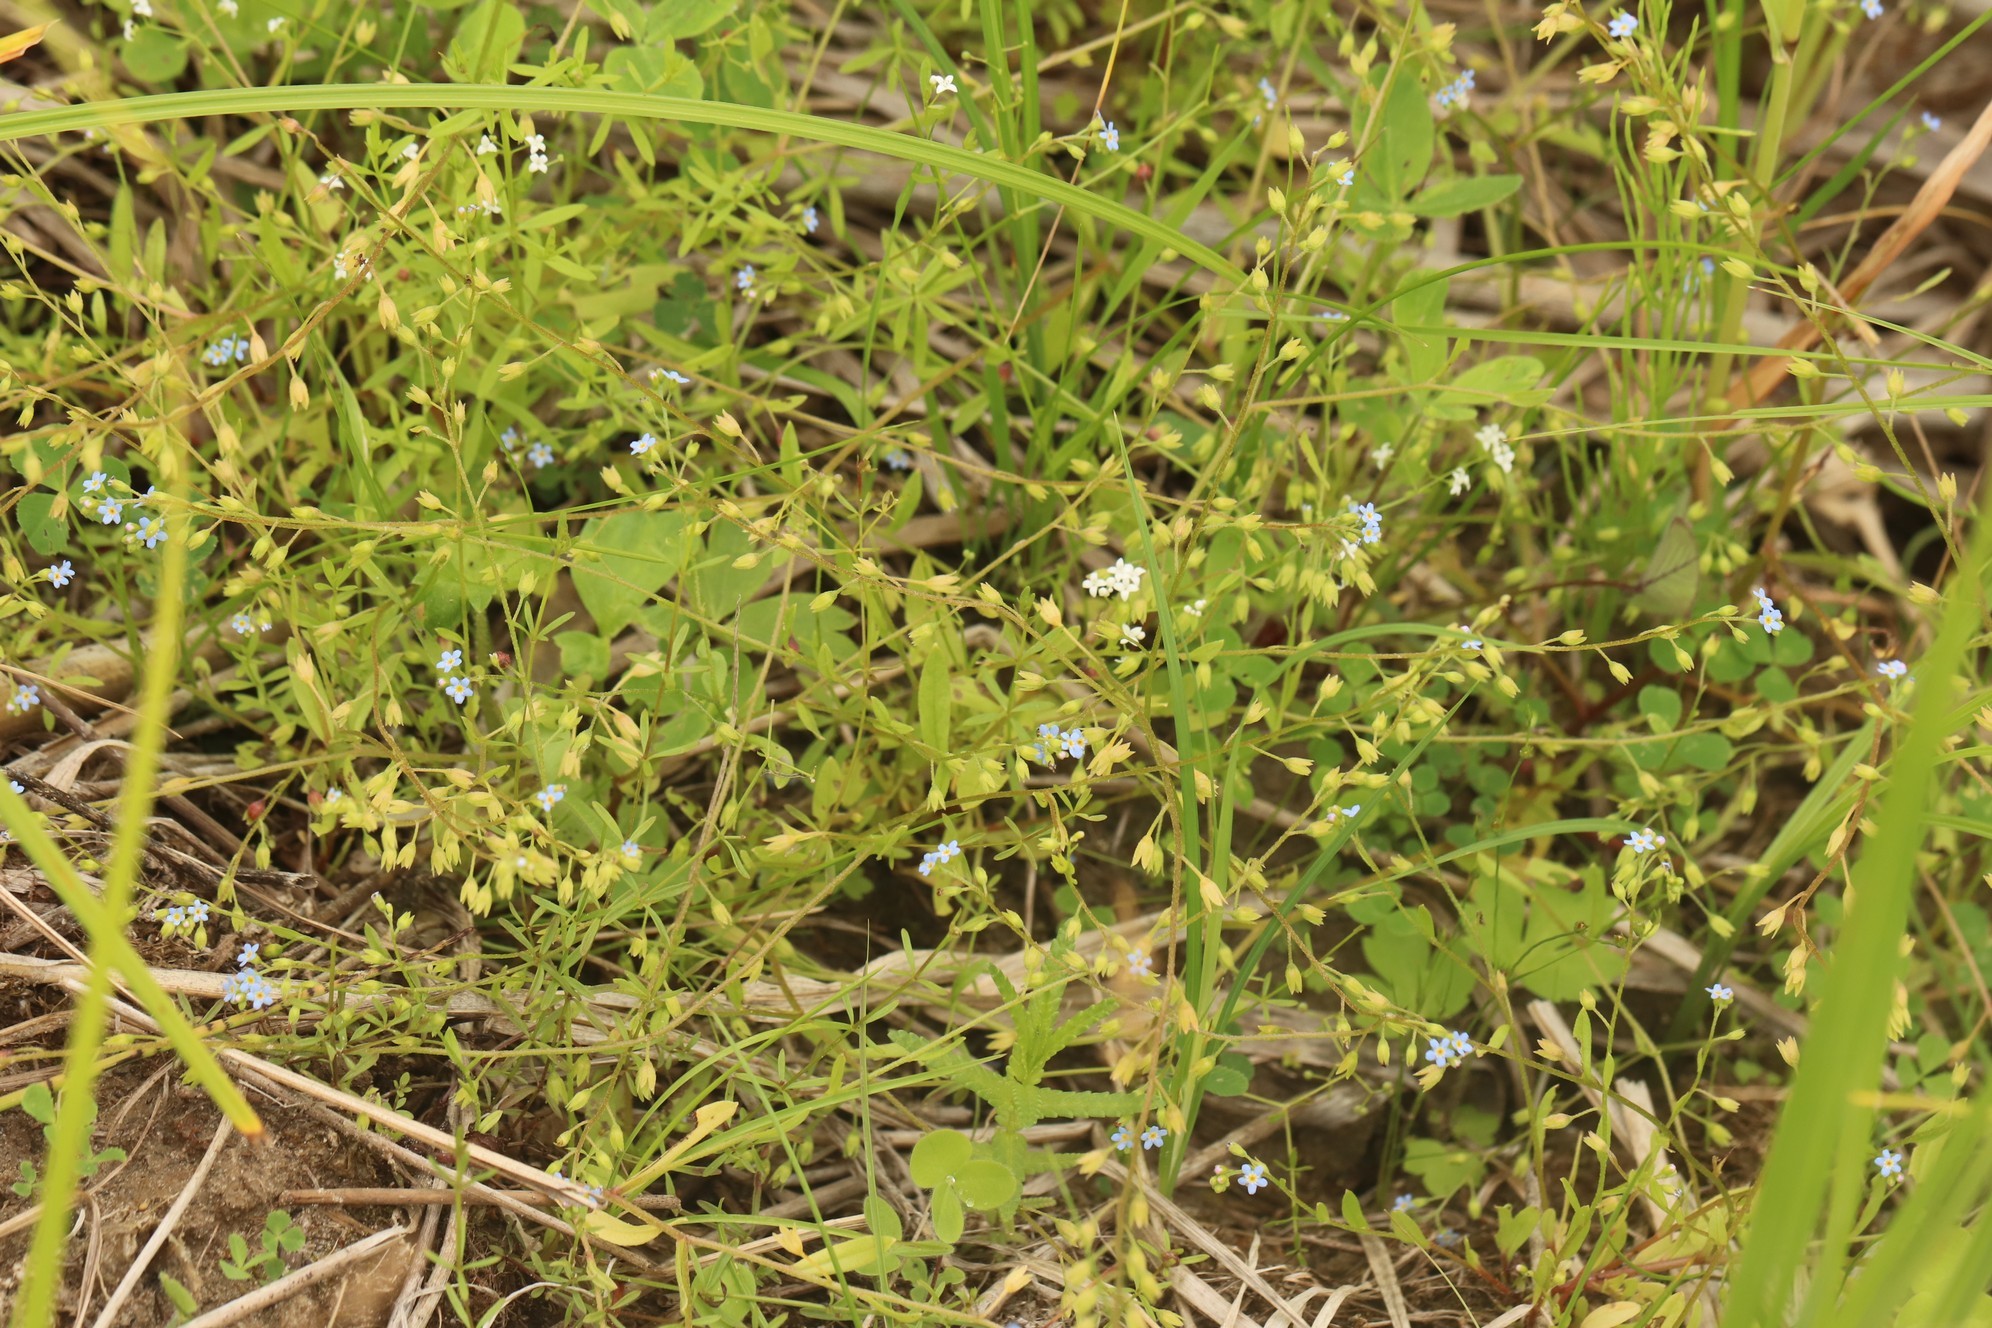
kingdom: Plantae
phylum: Tracheophyta
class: Magnoliopsida
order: Boraginales
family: Boraginaceae
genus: Myosotis
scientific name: Myosotis scorpioides
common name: Water forget-me-not
